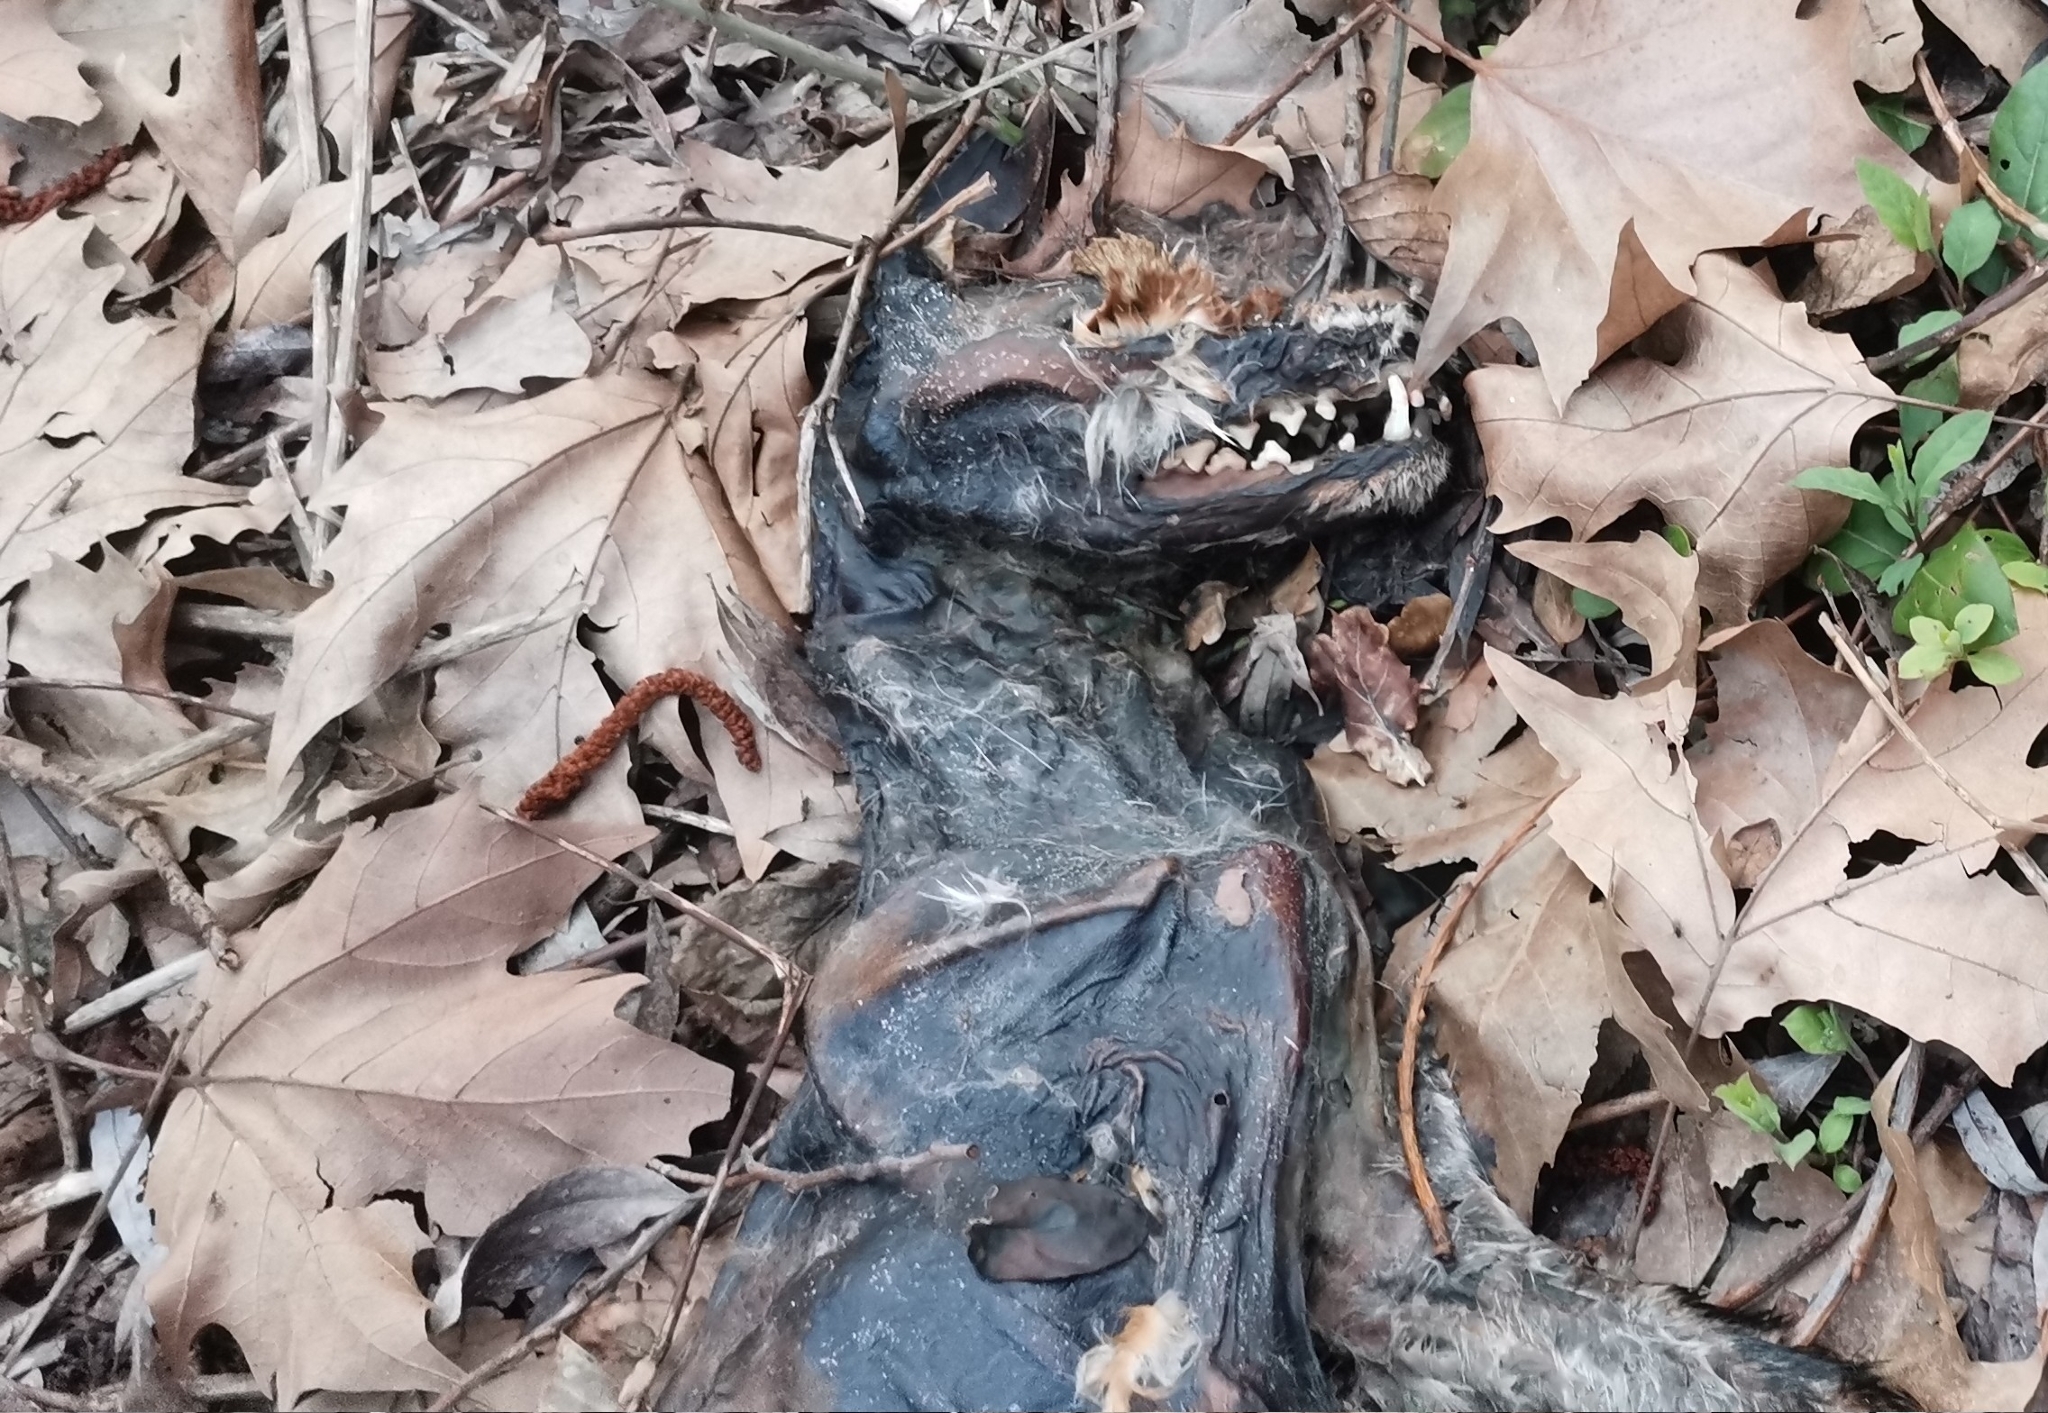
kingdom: Animalia
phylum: Chordata
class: Mammalia
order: Carnivora
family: Canidae
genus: Vulpes
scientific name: Vulpes vulpes
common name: Red fox
